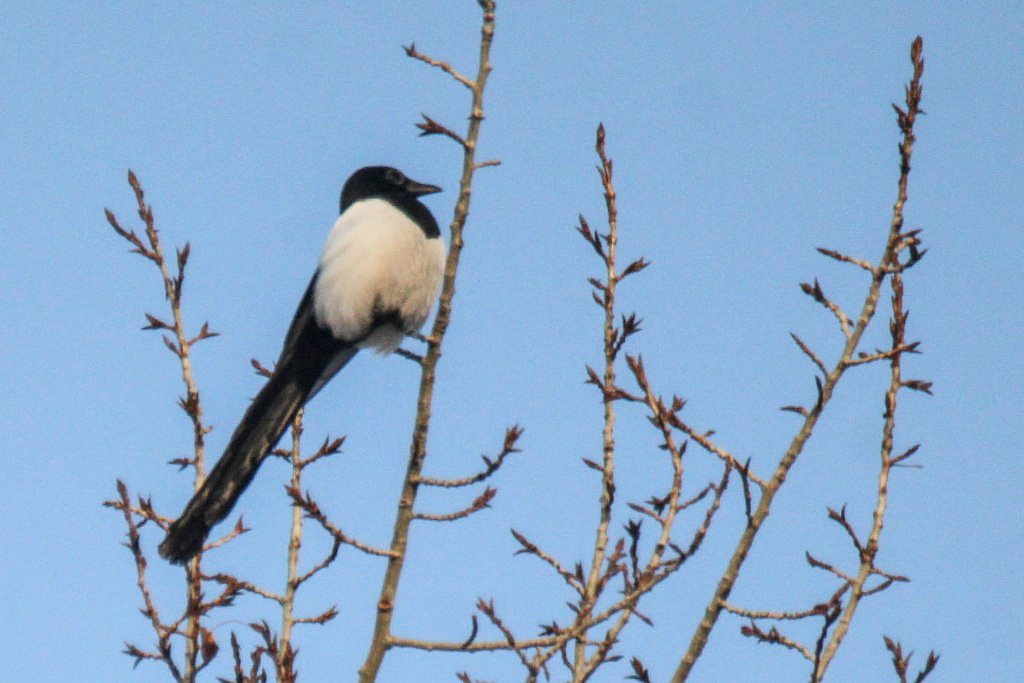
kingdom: Animalia
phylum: Chordata
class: Aves
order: Passeriformes
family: Corvidae
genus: Pica
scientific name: Pica pica
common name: Eurasian magpie
